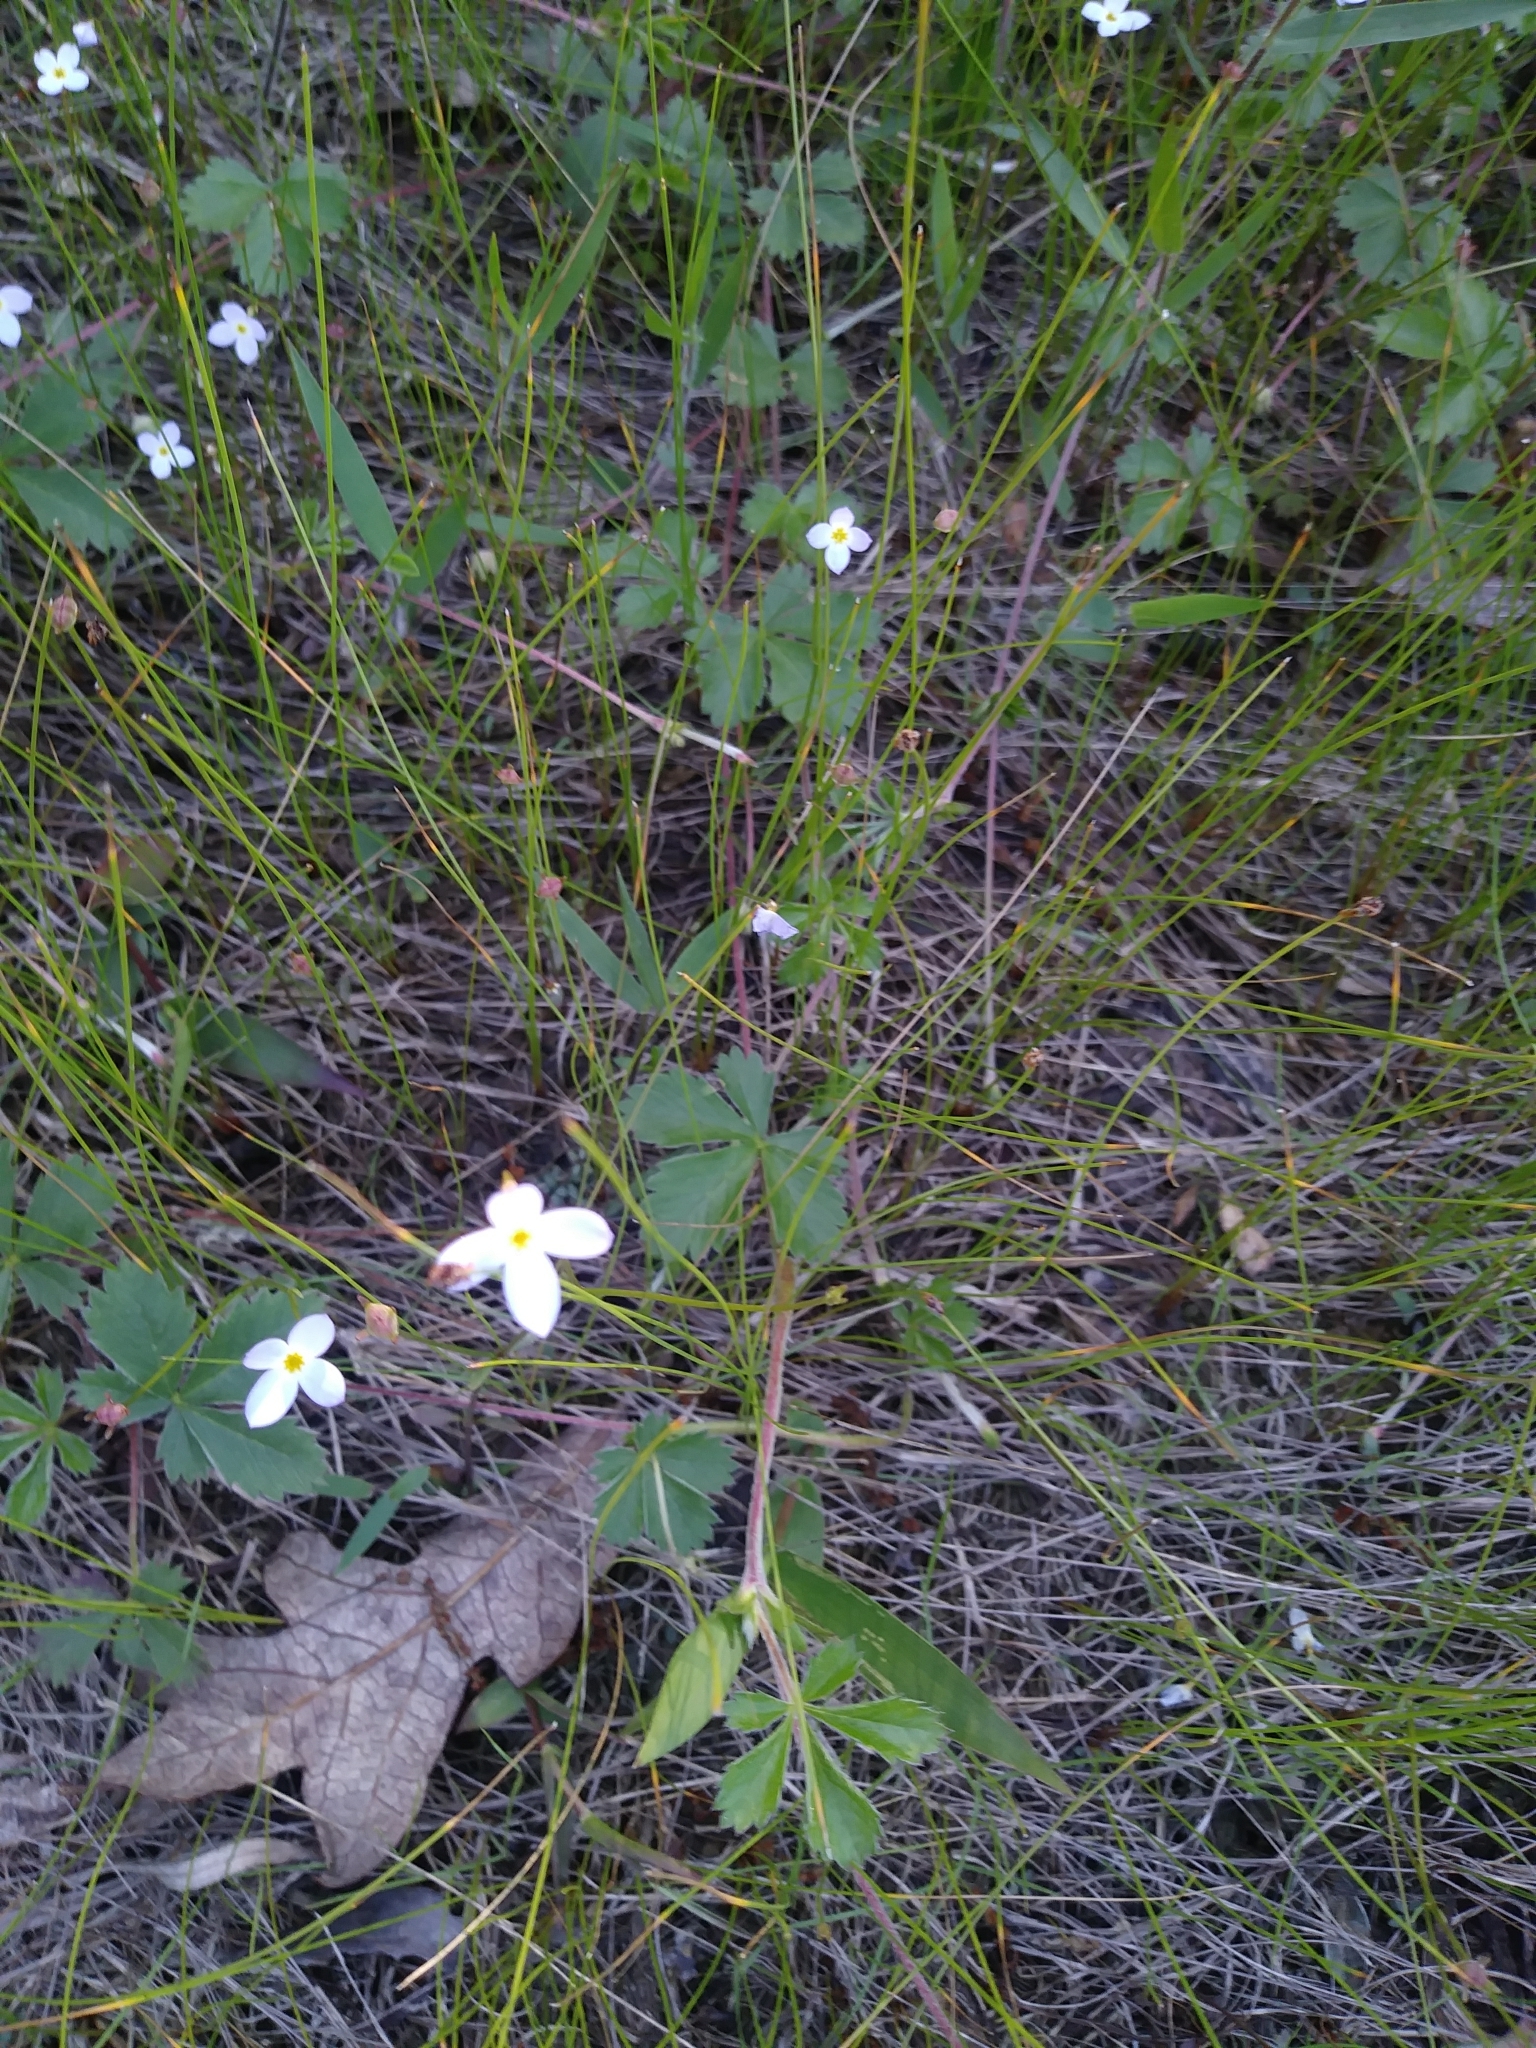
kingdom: Plantae
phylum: Tracheophyta
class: Magnoliopsida
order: Gentianales
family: Rubiaceae
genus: Houstonia
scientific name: Houstonia caerulea
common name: Bluets
